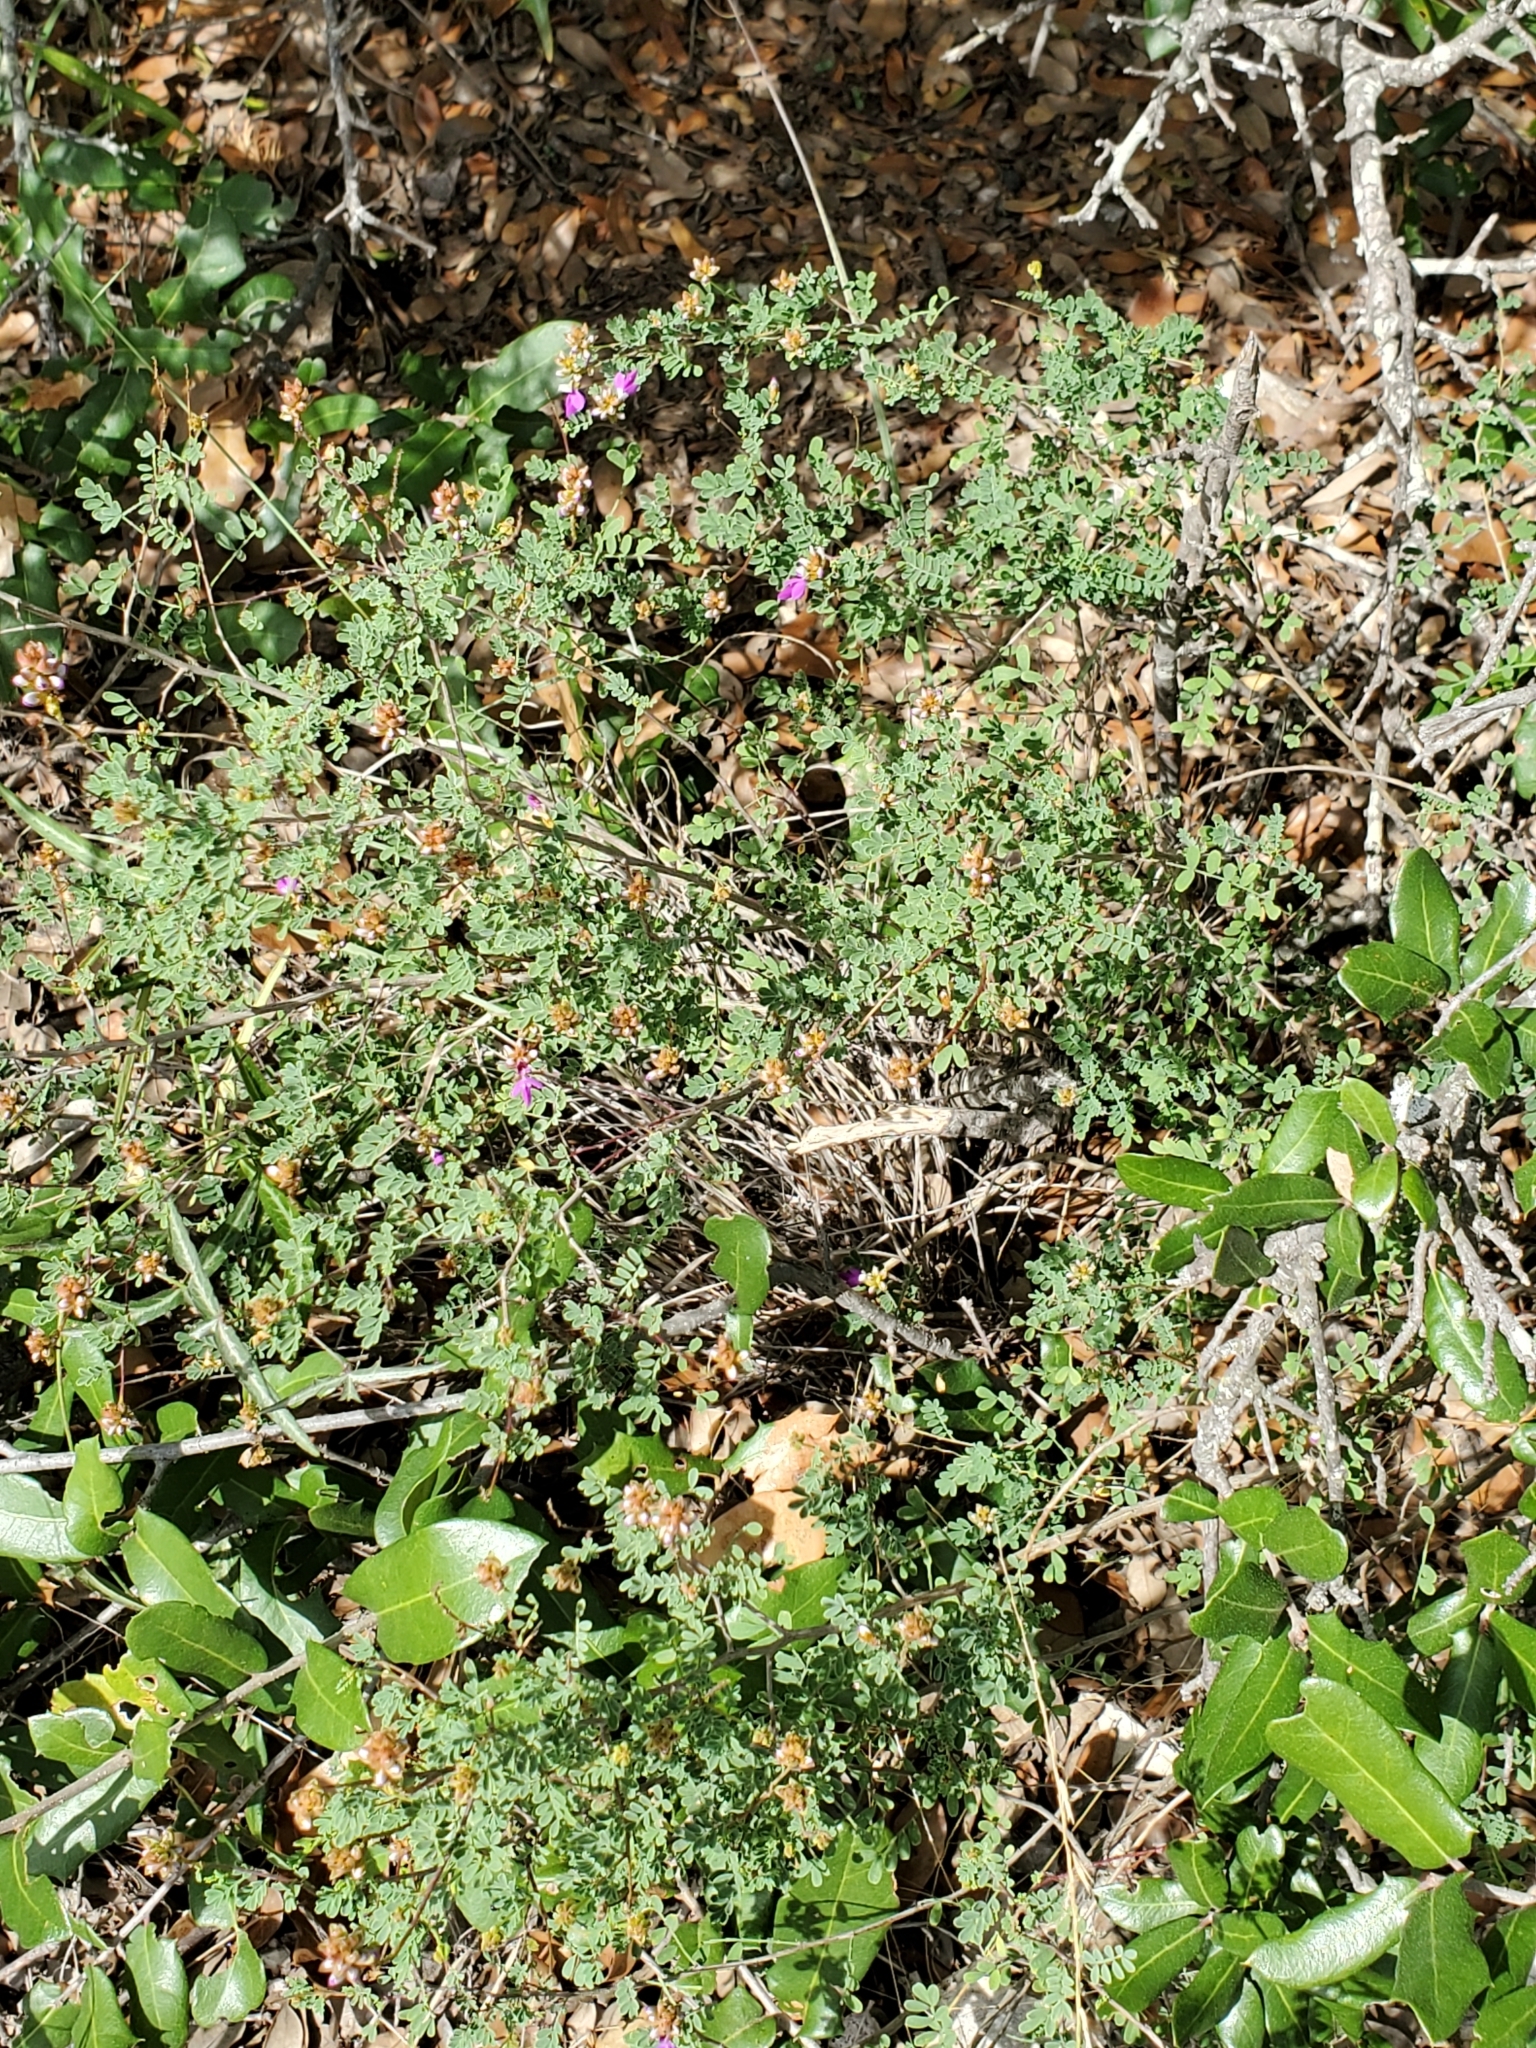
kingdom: Plantae
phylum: Tracheophyta
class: Magnoliopsida
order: Fabales
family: Fabaceae
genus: Dalea
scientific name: Dalea frutescens
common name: Black dalea
